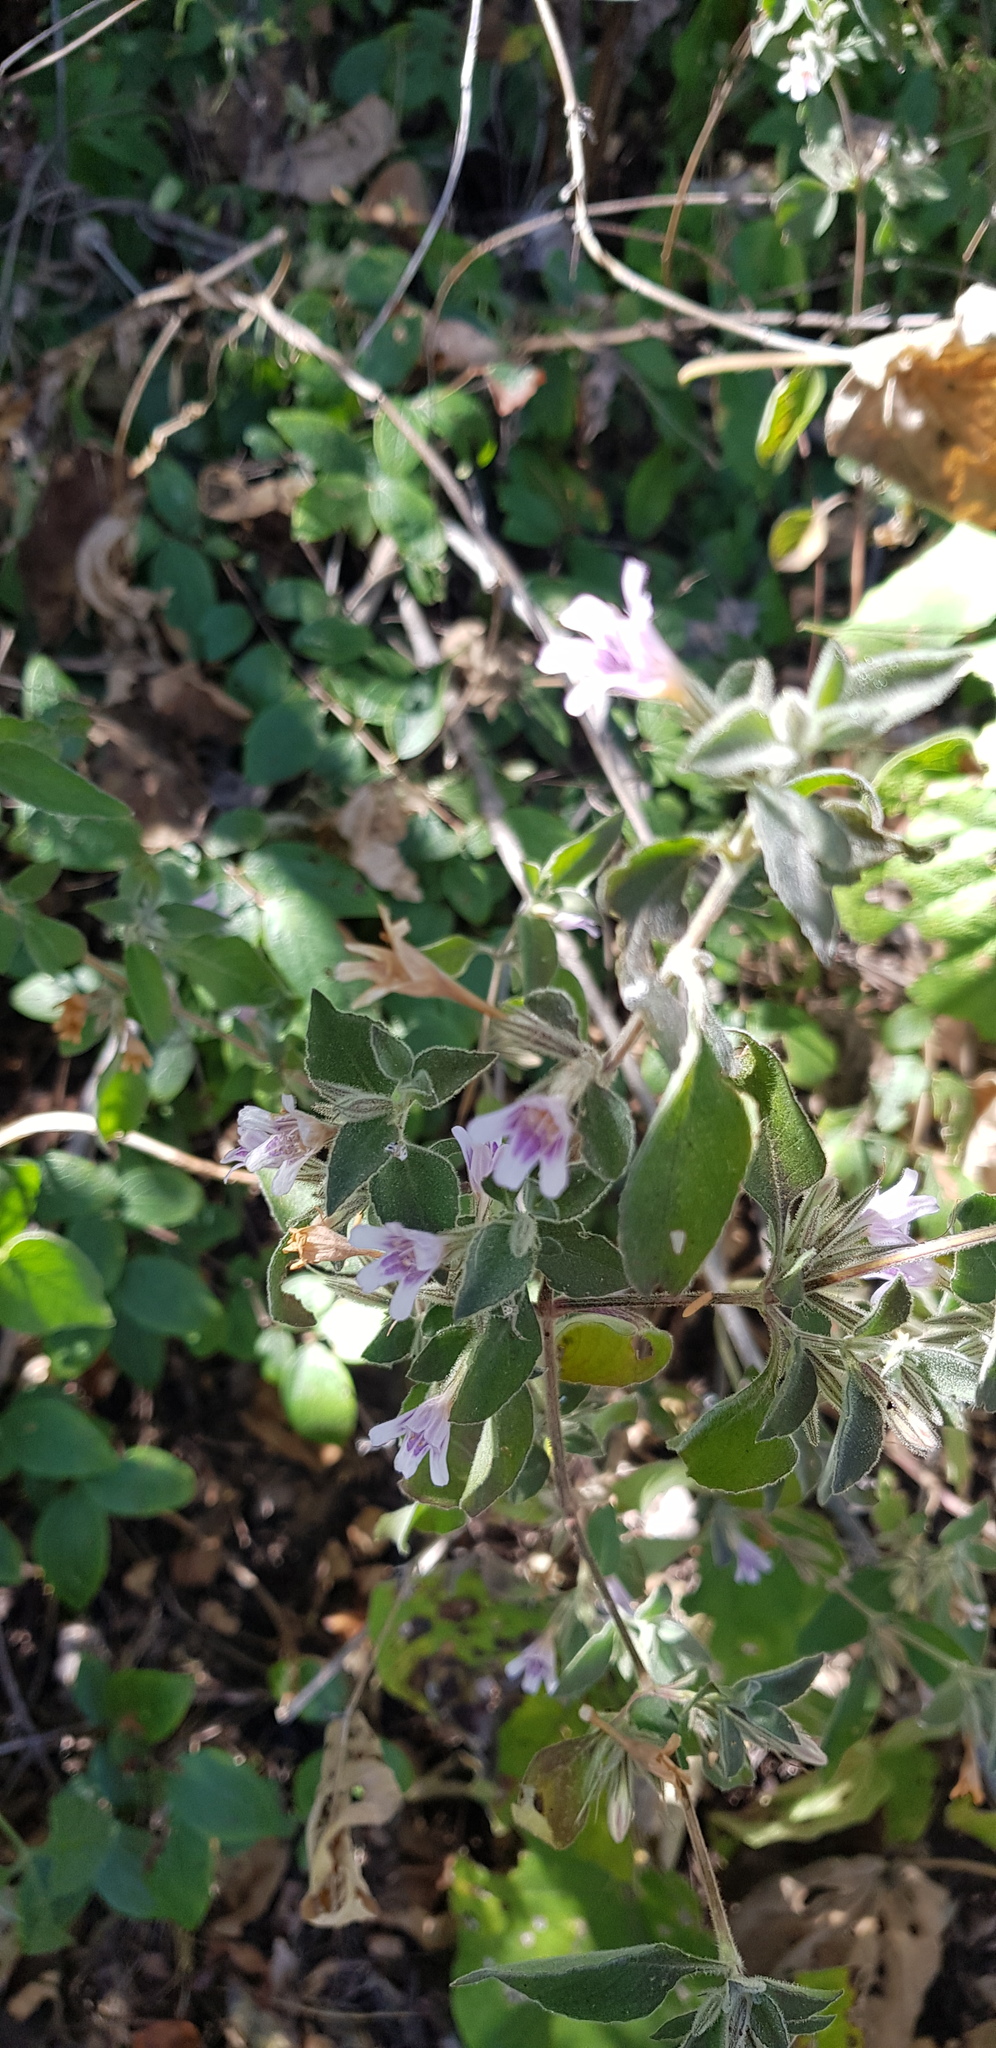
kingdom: Plantae
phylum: Tracheophyta
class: Magnoliopsida
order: Lamiales
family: Acanthaceae
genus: Dyschoriste
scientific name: Dyschoriste hirsutissima
